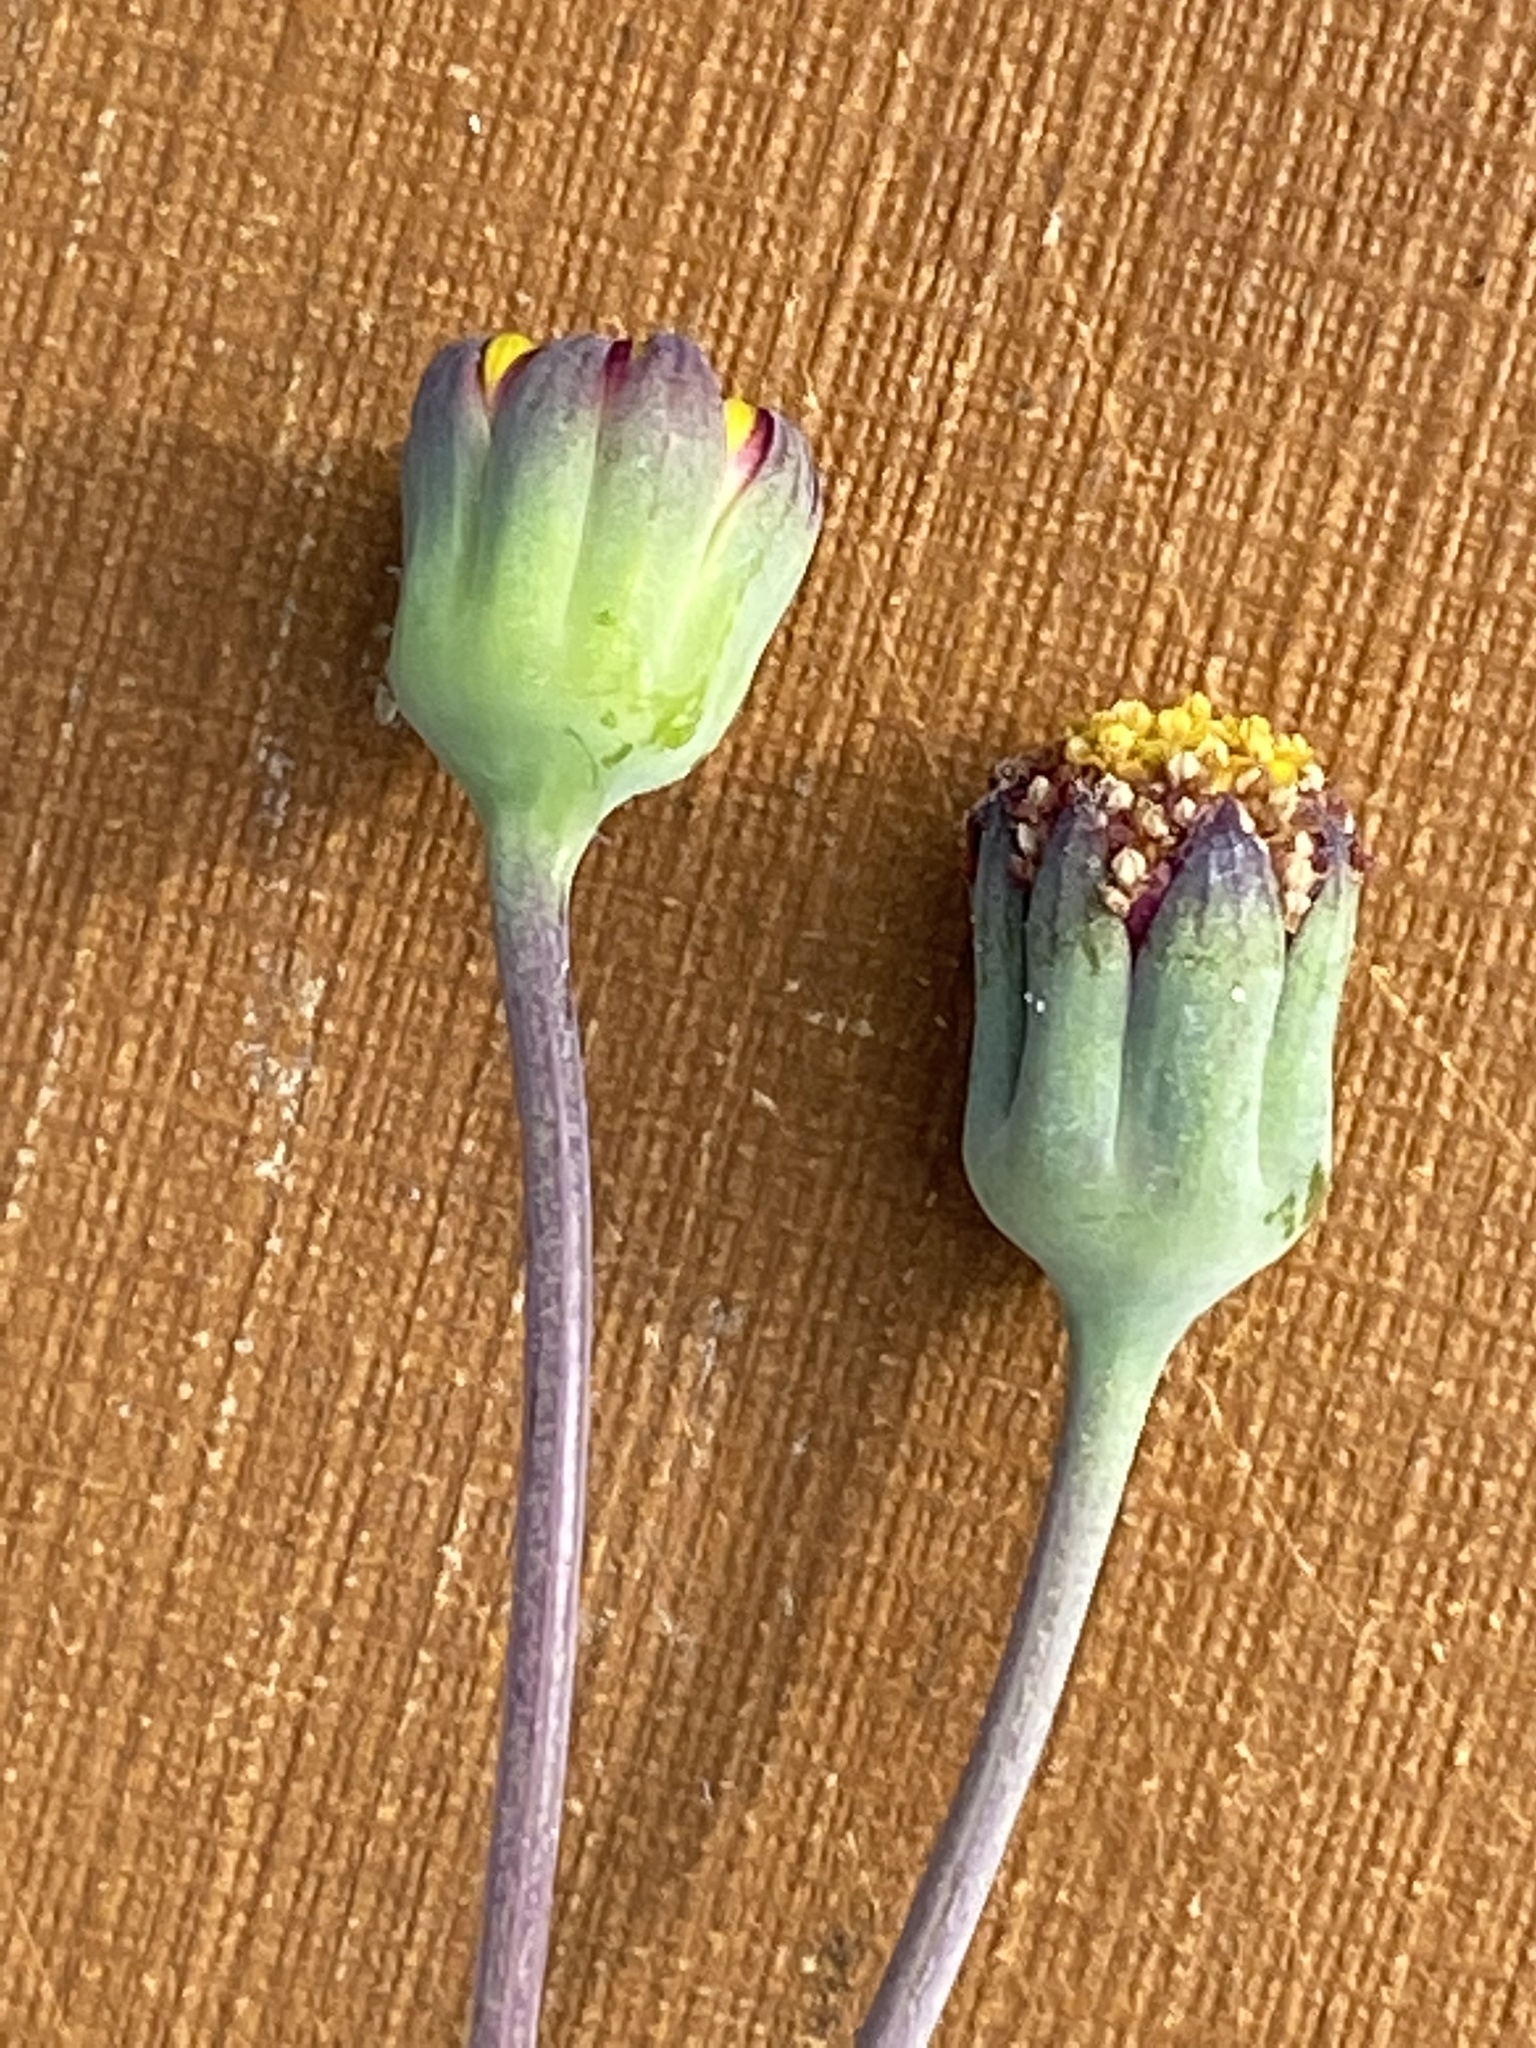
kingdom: Plantae
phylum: Tracheophyta
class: Magnoliopsida
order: Asterales
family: Asteraceae
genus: Othonna
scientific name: Othonna digitata
